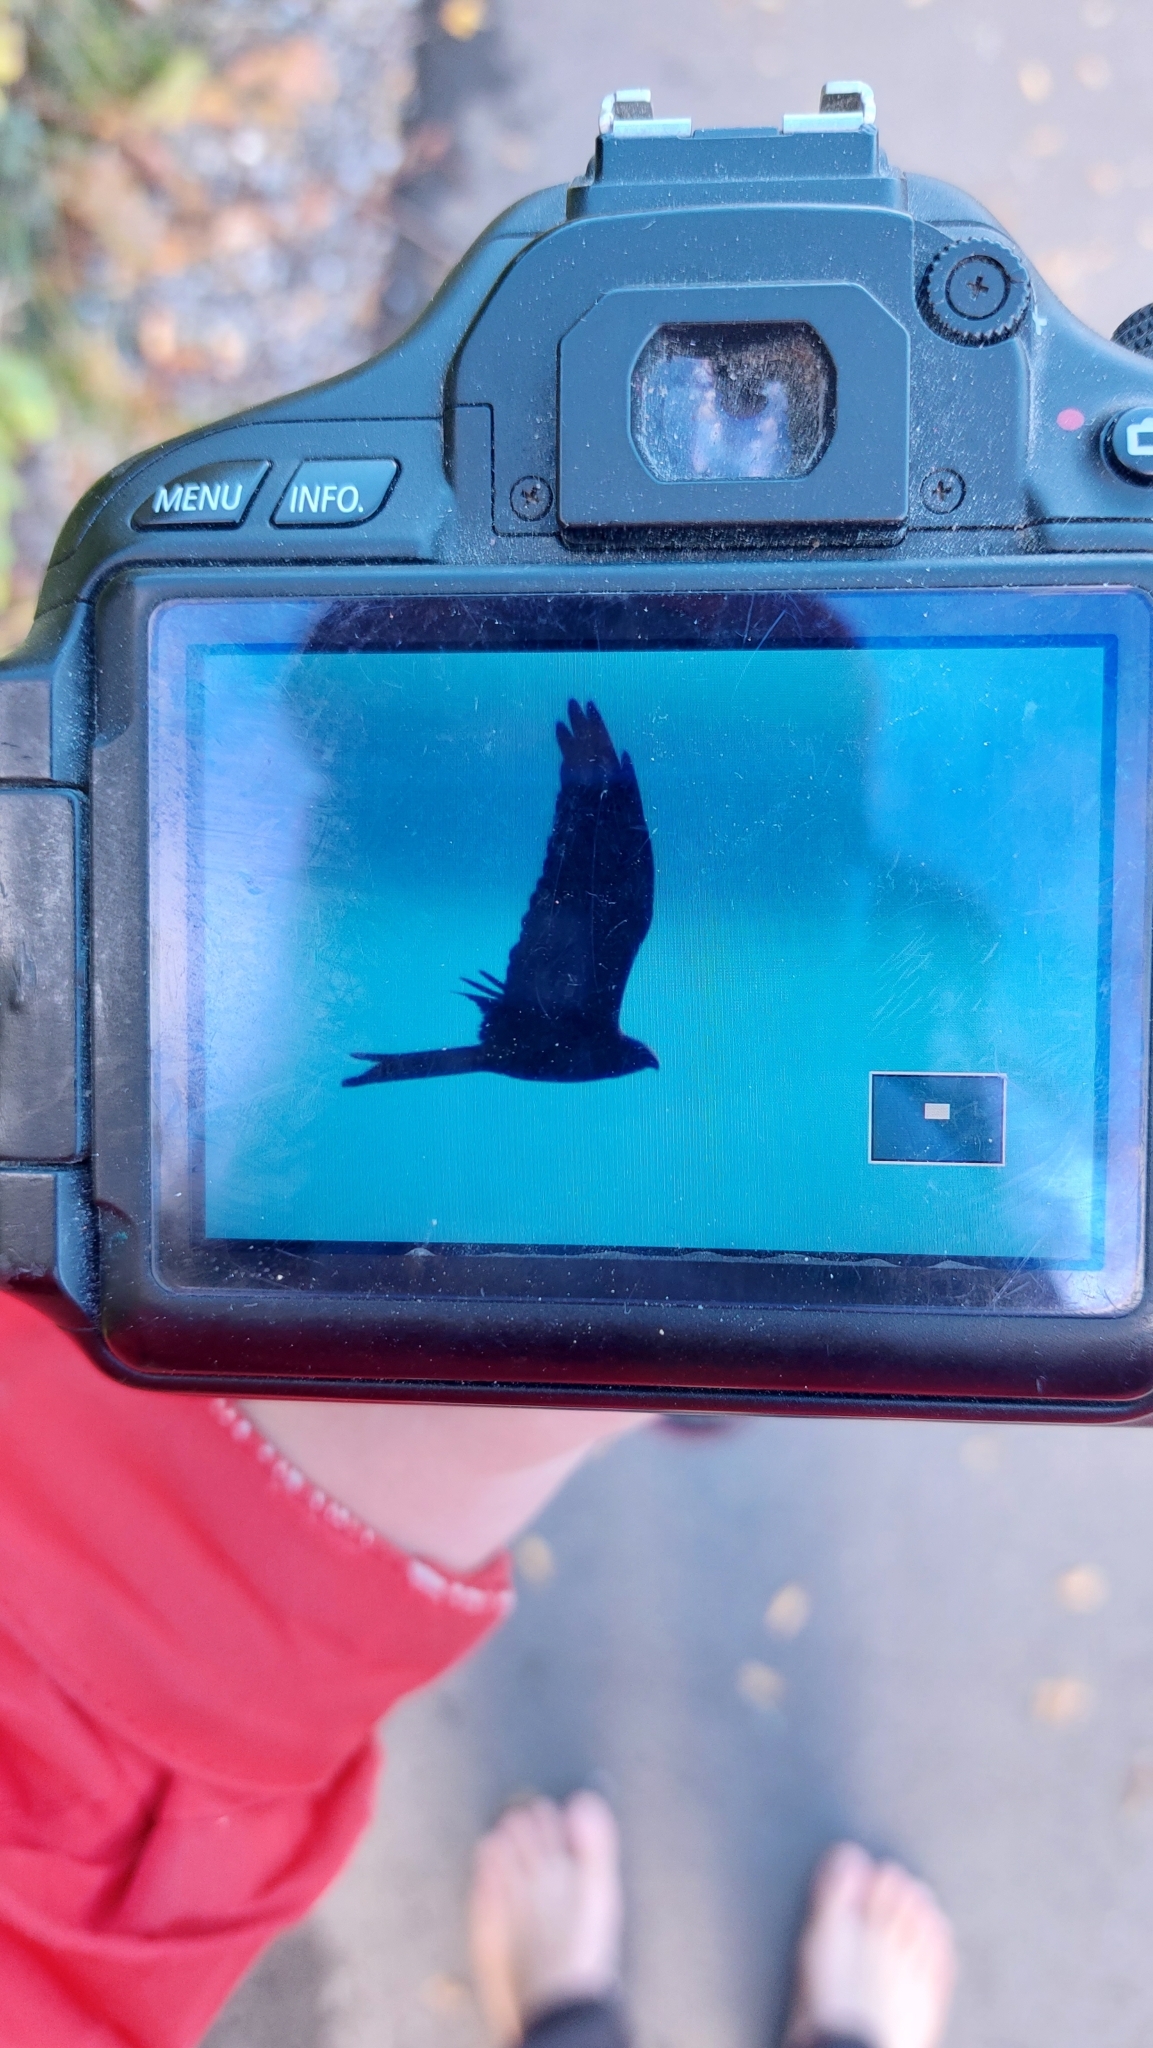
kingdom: Animalia
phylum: Chordata
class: Aves
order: Accipitriformes
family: Accipitridae
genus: Milvus
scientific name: Milvus milvus
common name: Red kite
